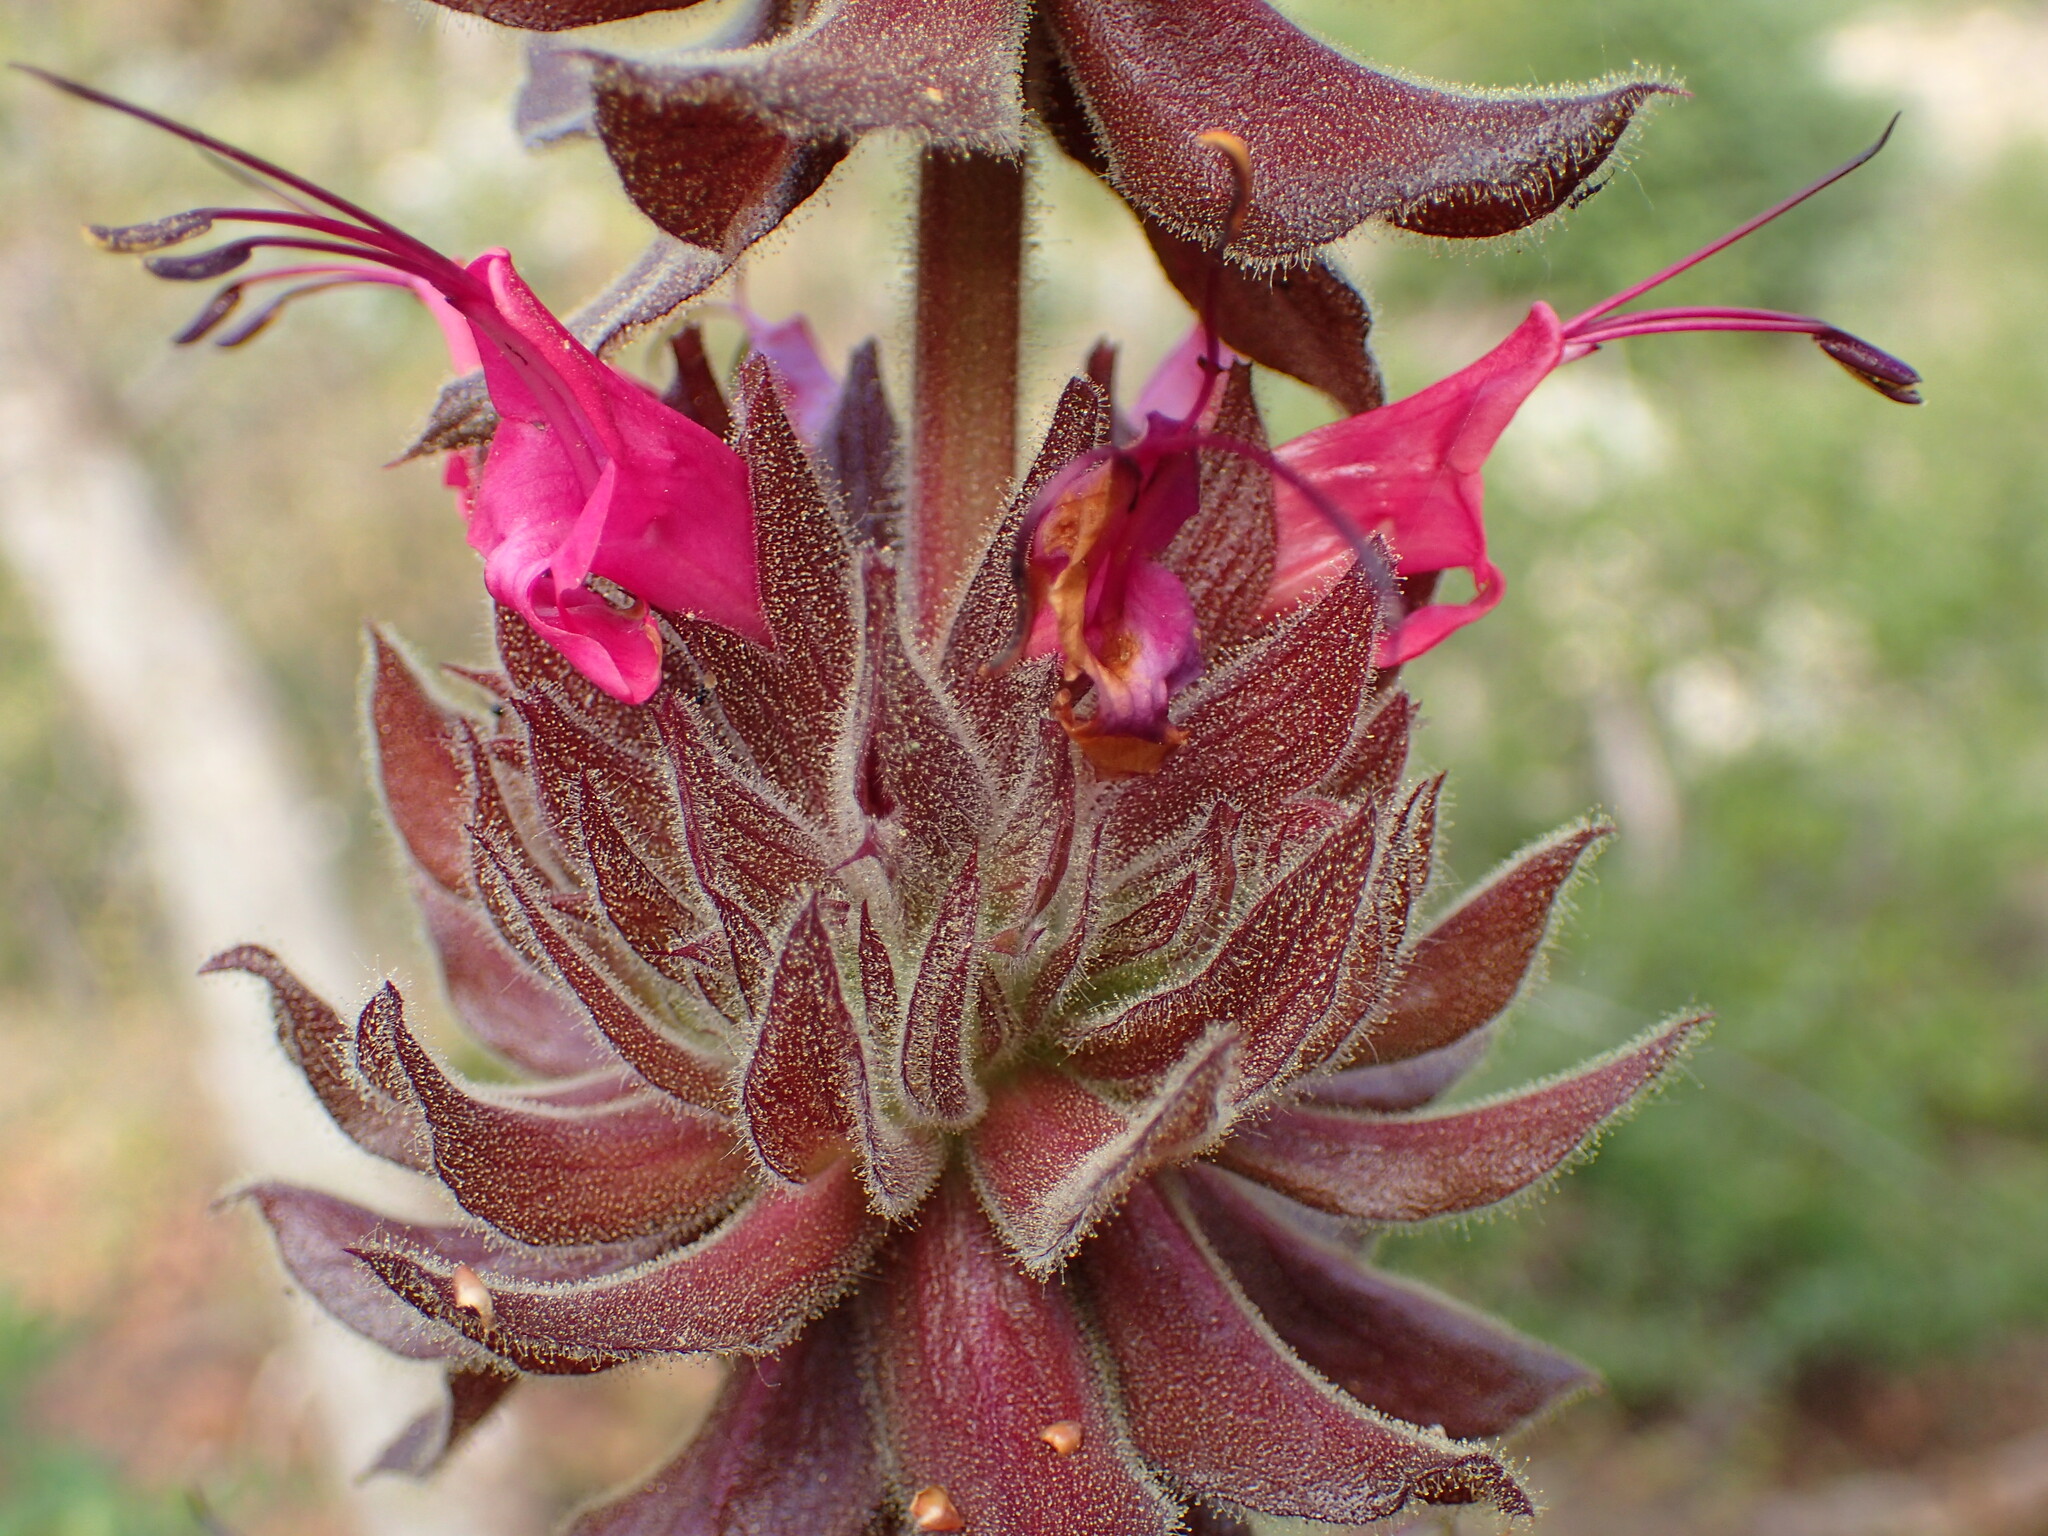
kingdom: Plantae
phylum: Tracheophyta
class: Magnoliopsida
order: Lamiales
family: Lamiaceae
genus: Salvia
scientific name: Salvia spathacea
